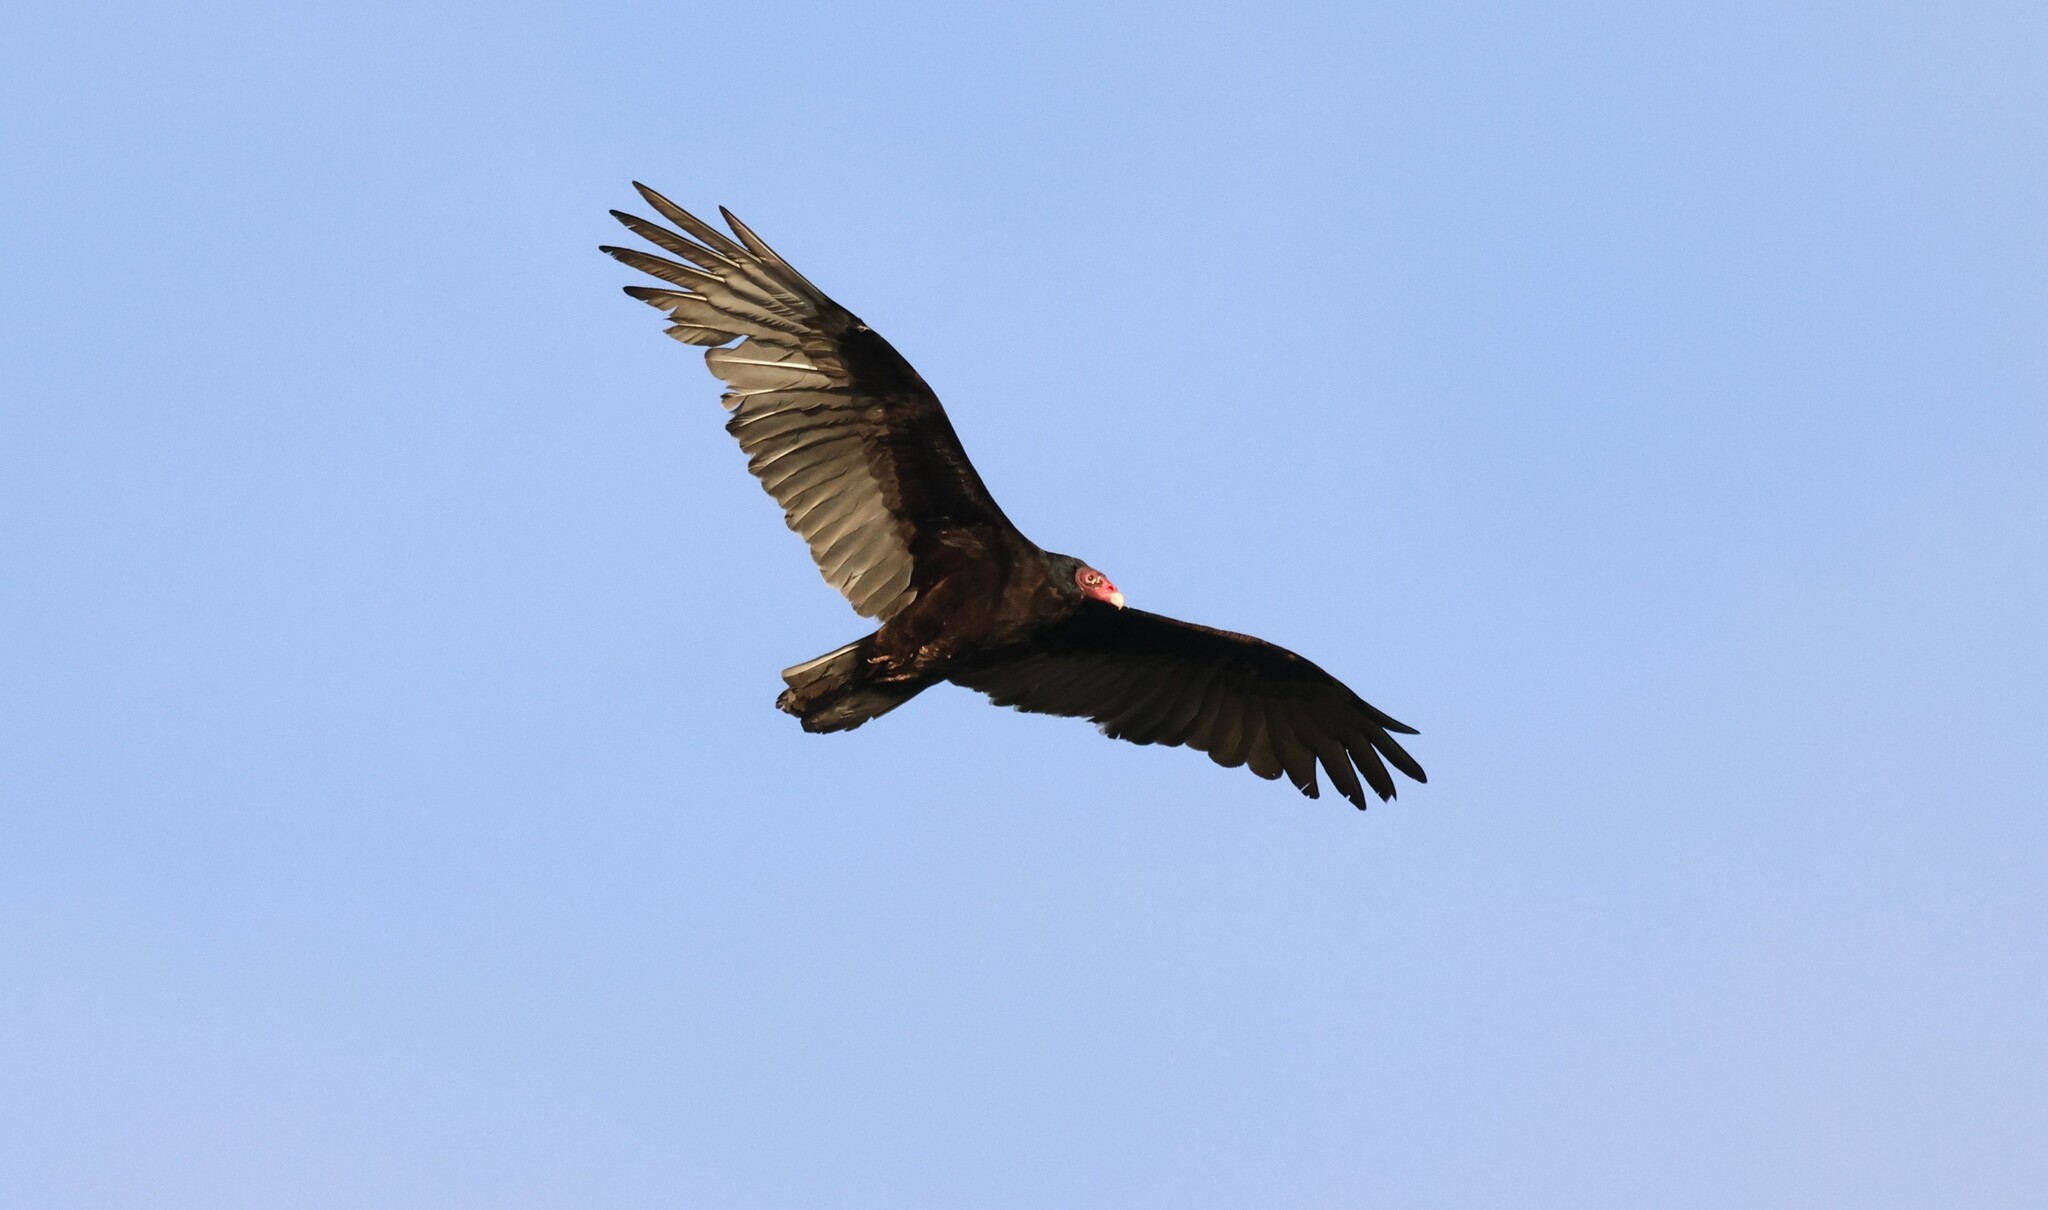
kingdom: Animalia
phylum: Chordata
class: Aves
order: Accipitriformes
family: Cathartidae
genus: Cathartes
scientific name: Cathartes aura
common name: Turkey vulture
